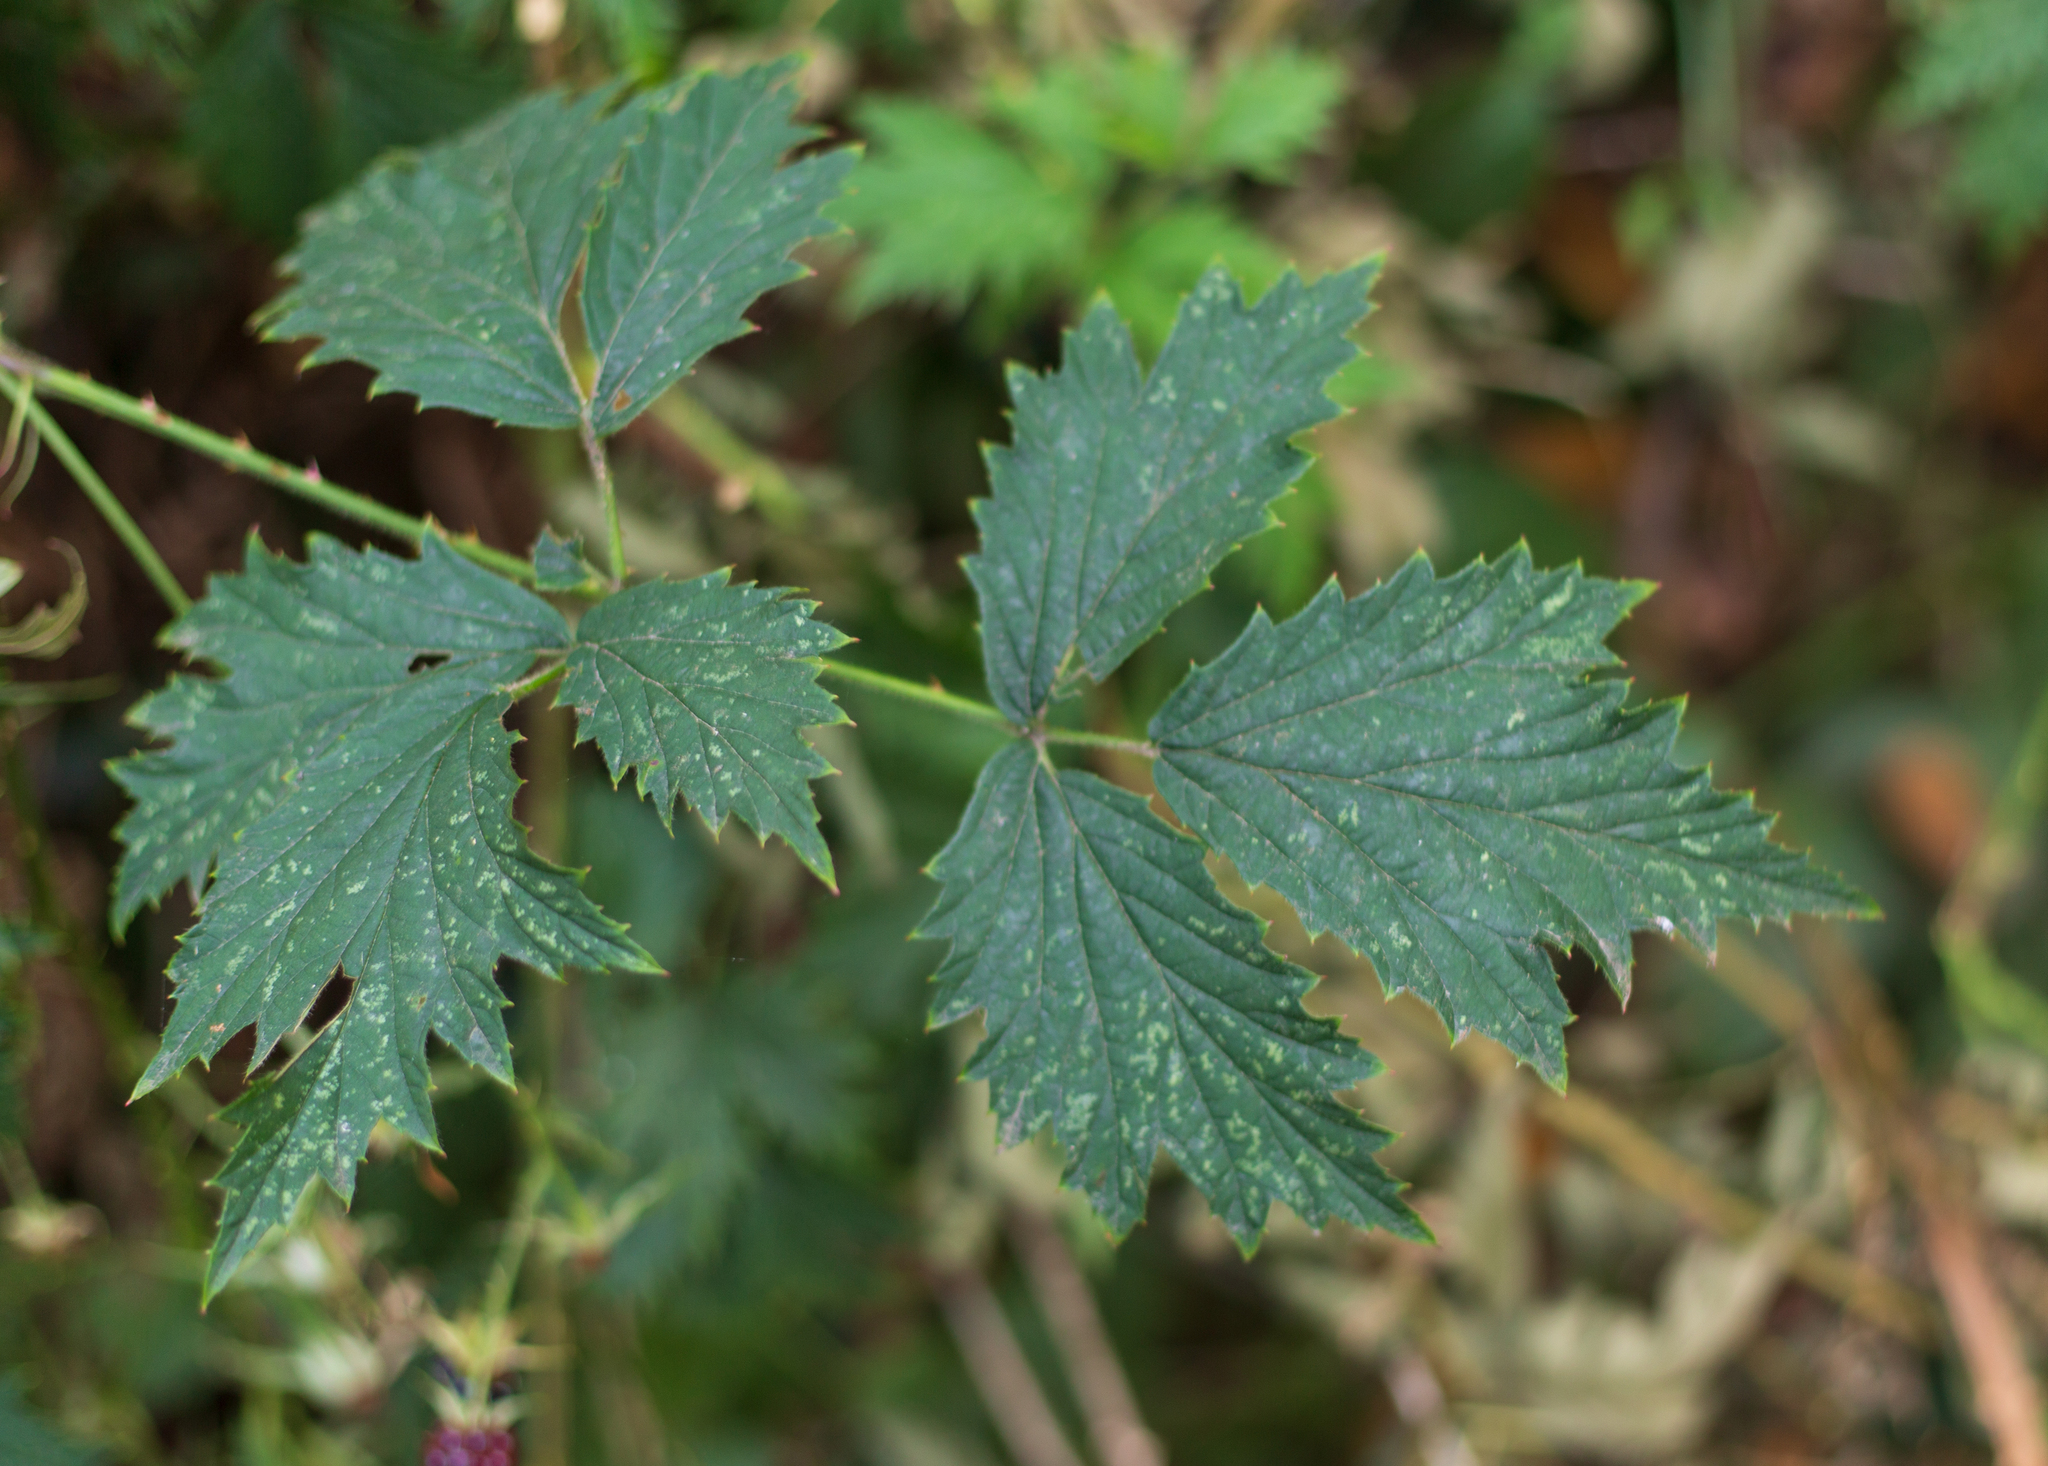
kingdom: Plantae
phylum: Tracheophyta
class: Magnoliopsida
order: Rosales
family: Rosaceae
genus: Rubus
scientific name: Rubus laciniatus
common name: Evergreen blackberry
